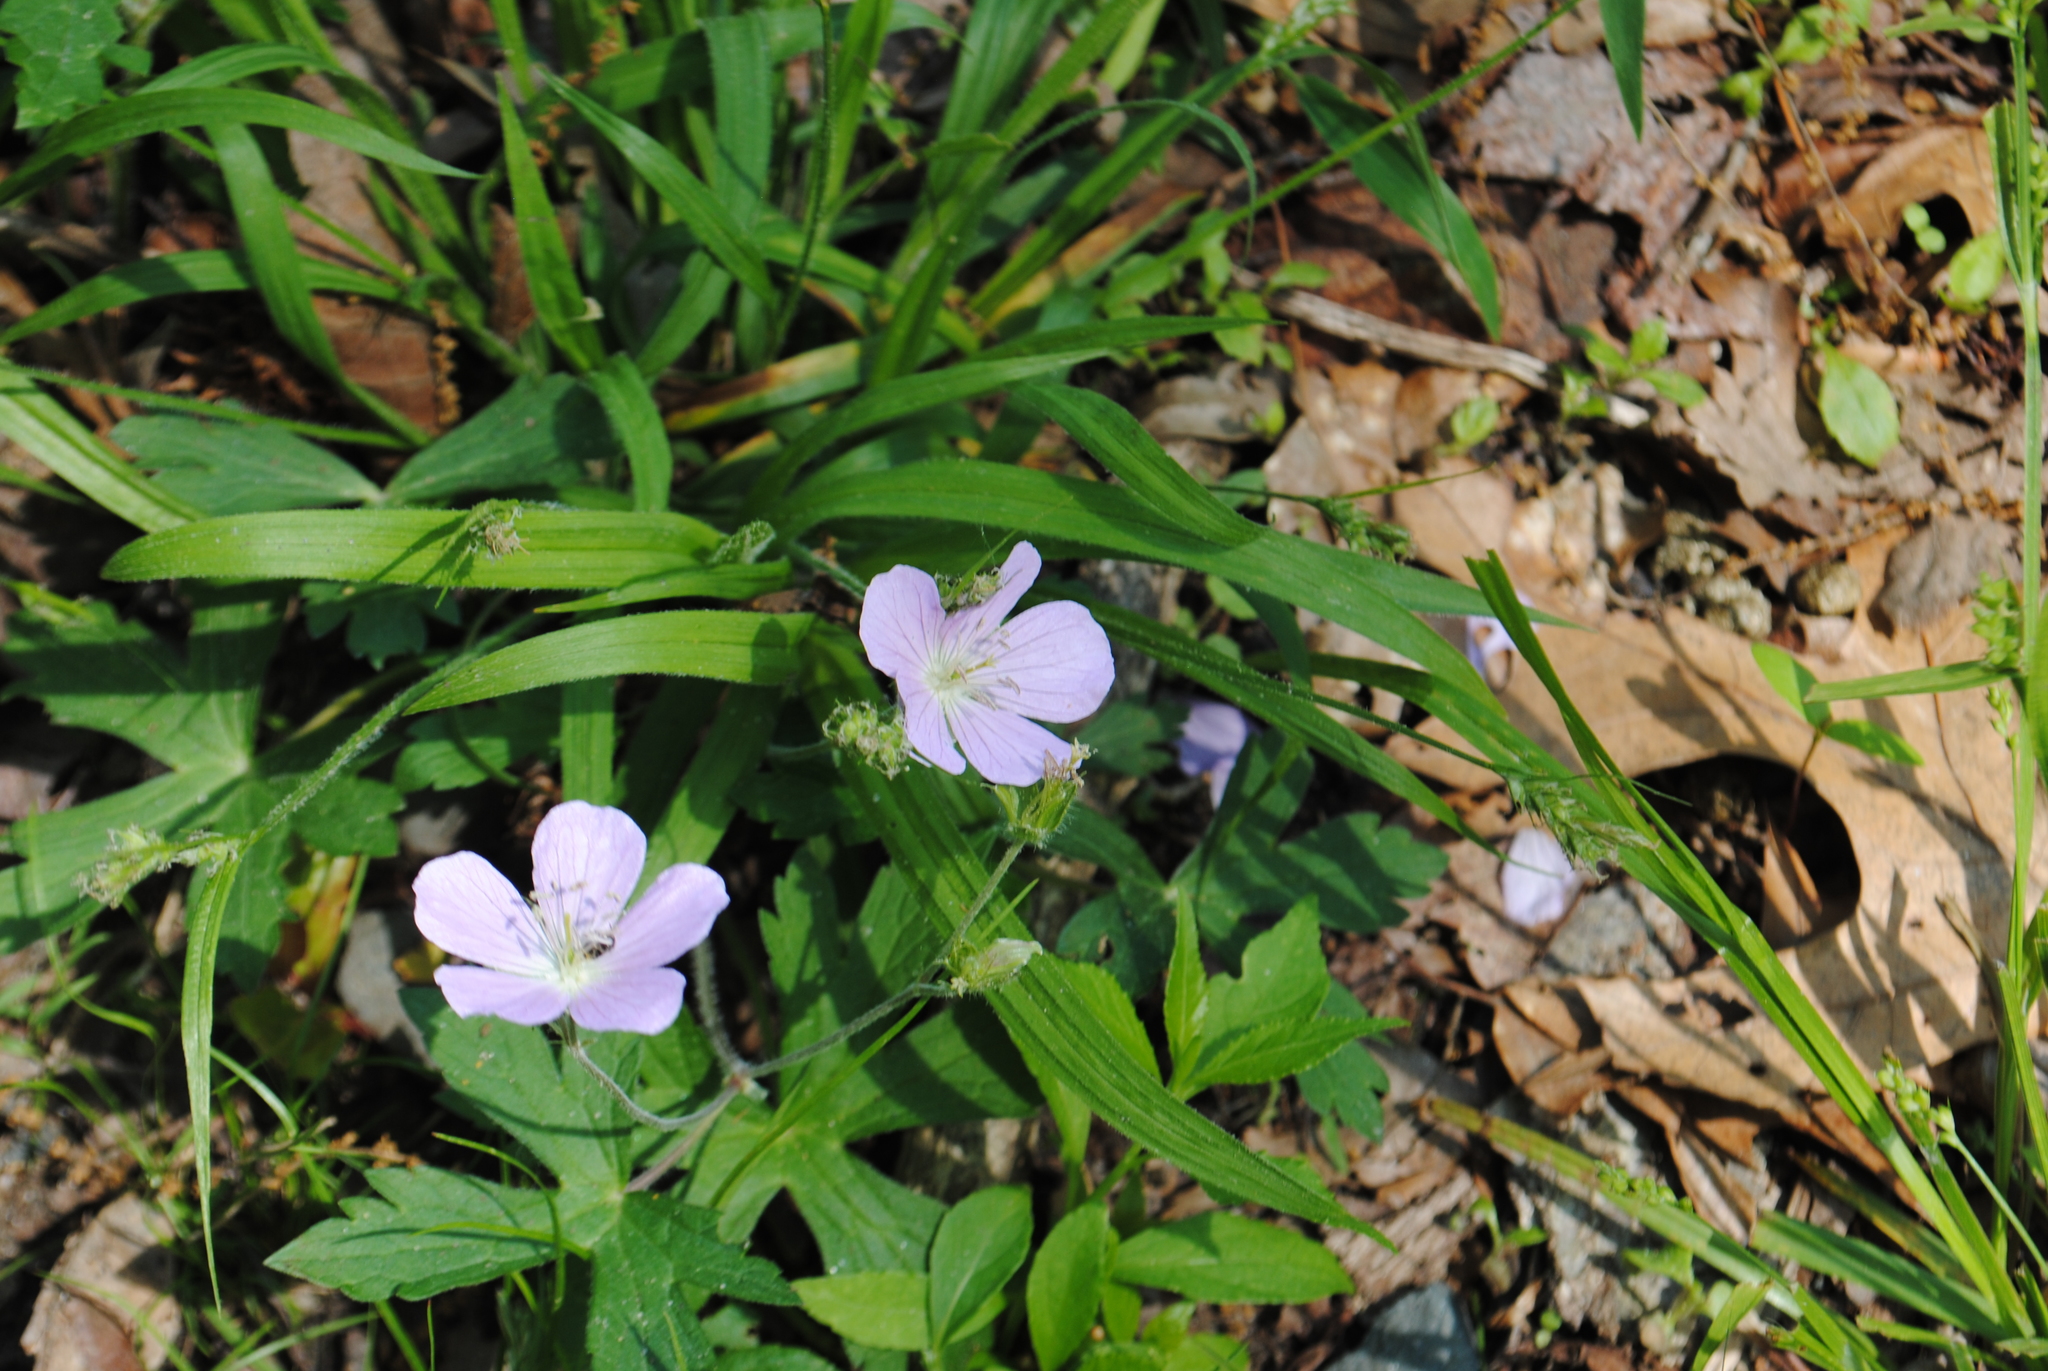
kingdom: Plantae
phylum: Tracheophyta
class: Magnoliopsida
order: Geraniales
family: Geraniaceae
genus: Geranium
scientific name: Geranium maculatum
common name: Spotted geranium
